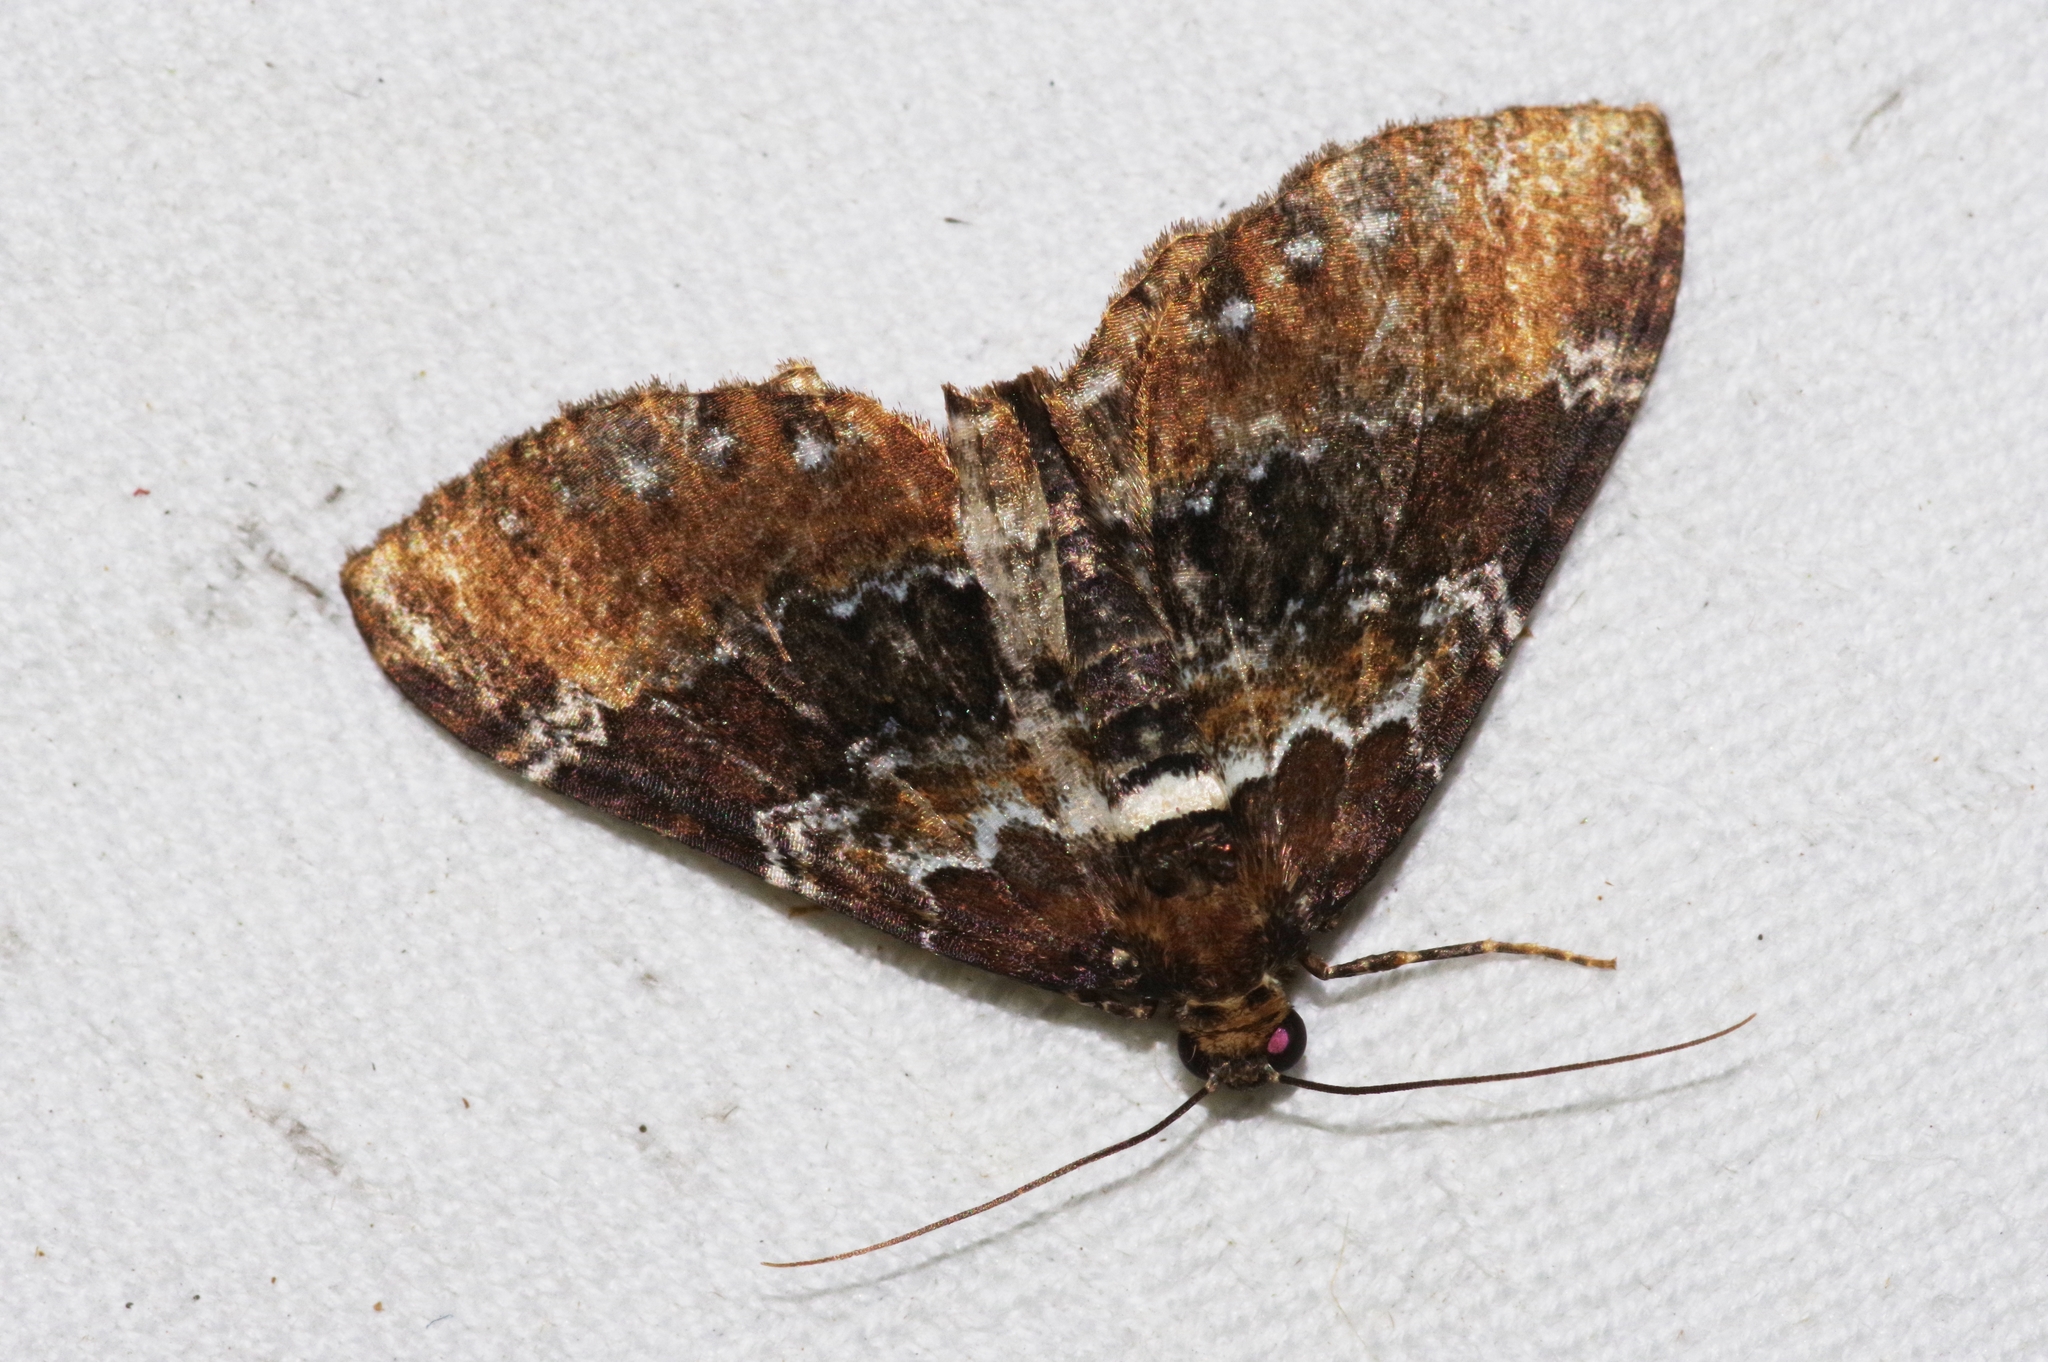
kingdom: Animalia
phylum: Arthropoda
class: Insecta
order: Lepidoptera
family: Geometridae
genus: Melanthia
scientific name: Melanthia catenaria
